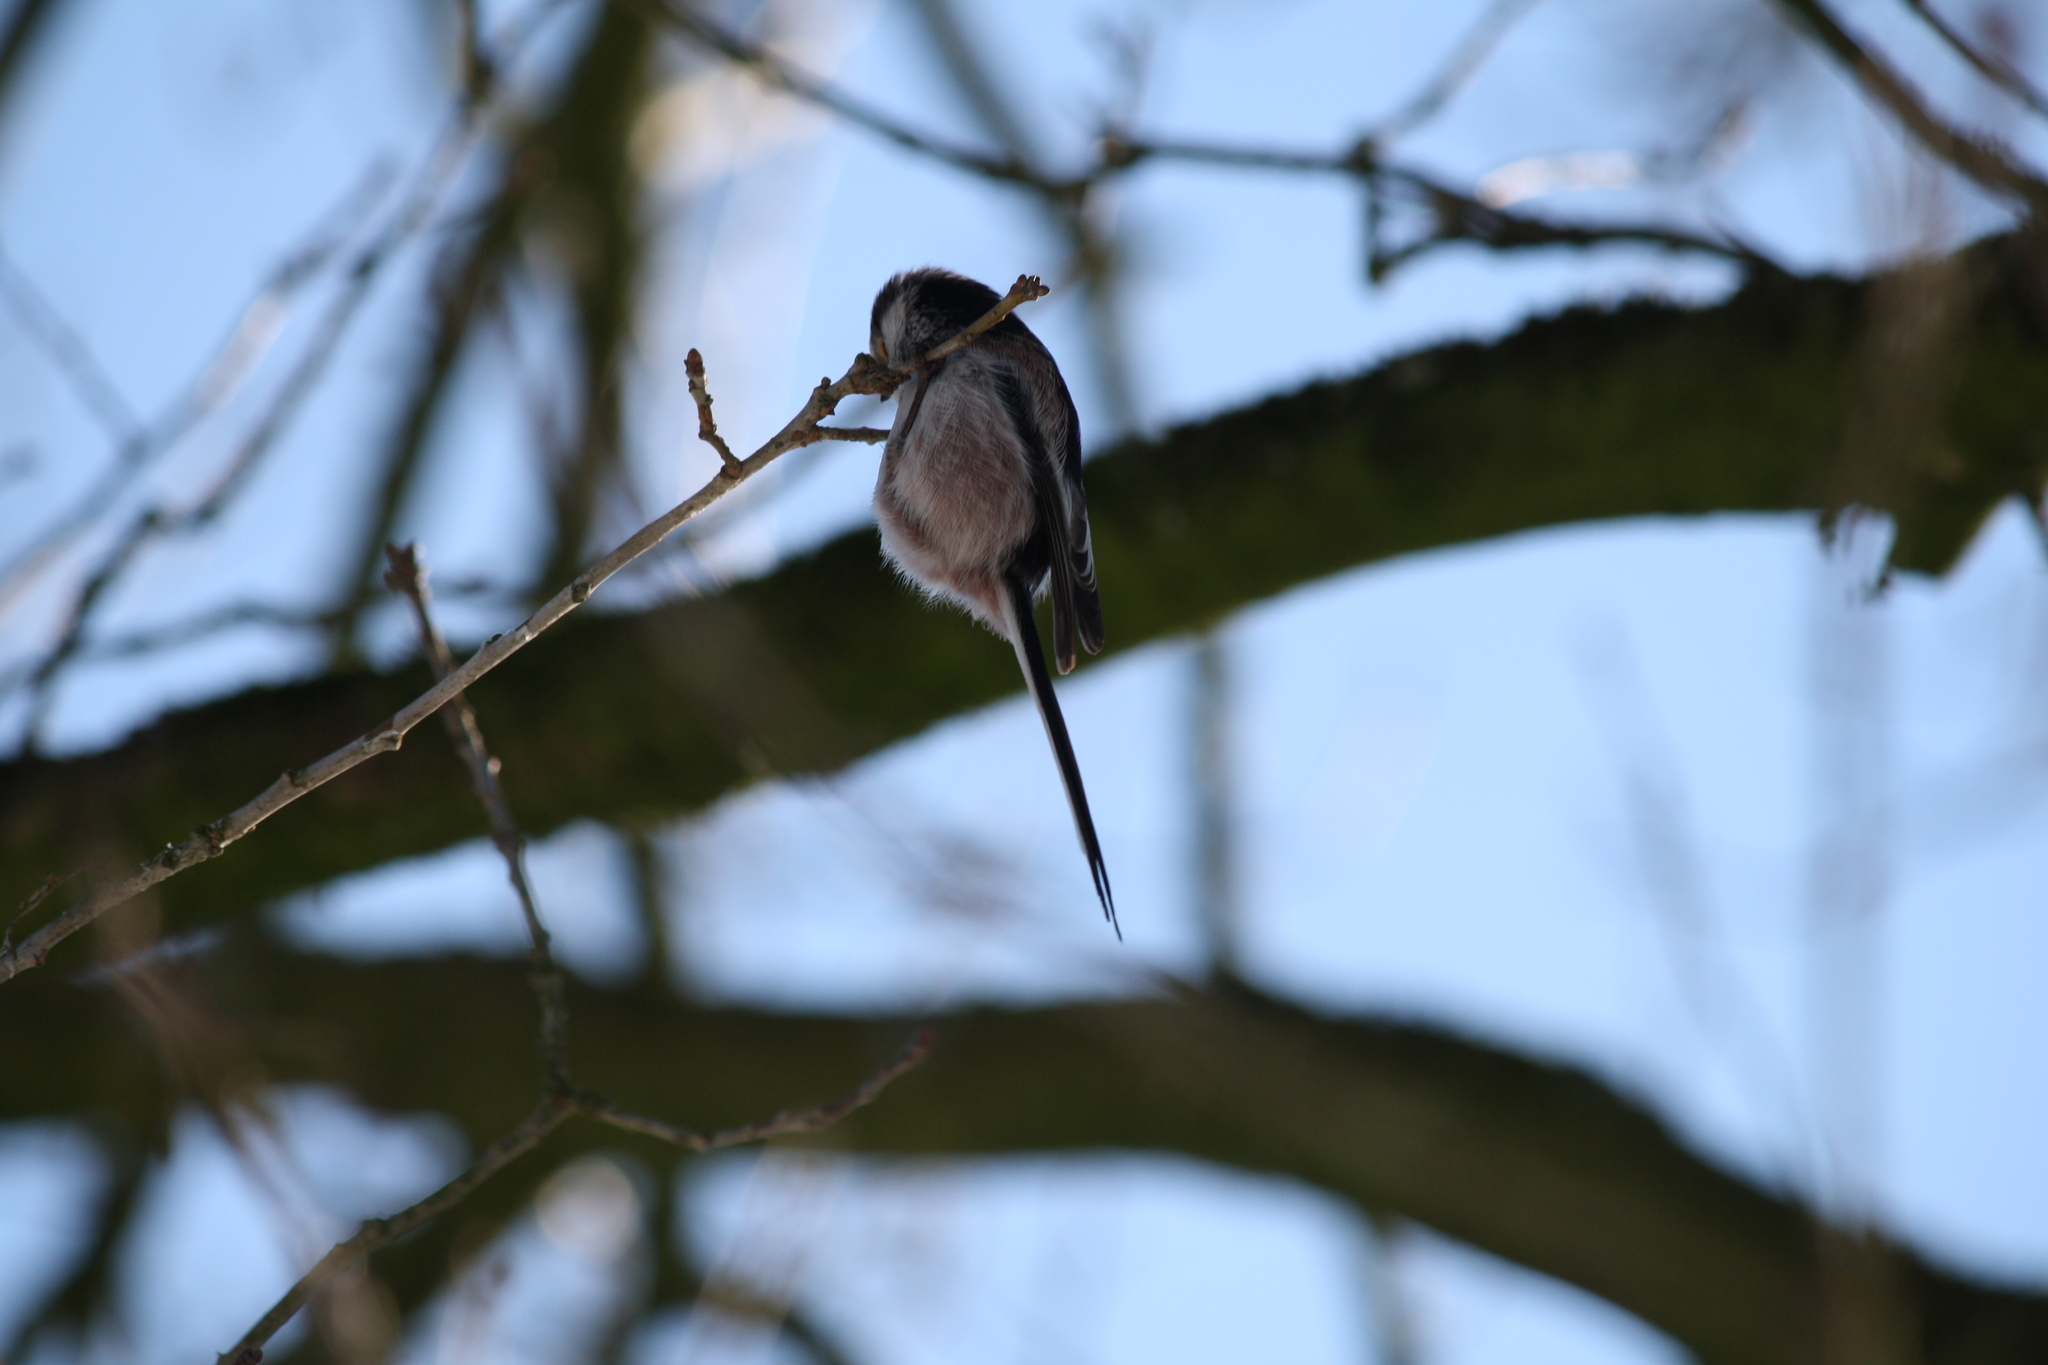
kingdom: Animalia
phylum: Chordata
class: Aves
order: Passeriformes
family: Aegithalidae
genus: Aegithalos
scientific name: Aegithalos caudatus
